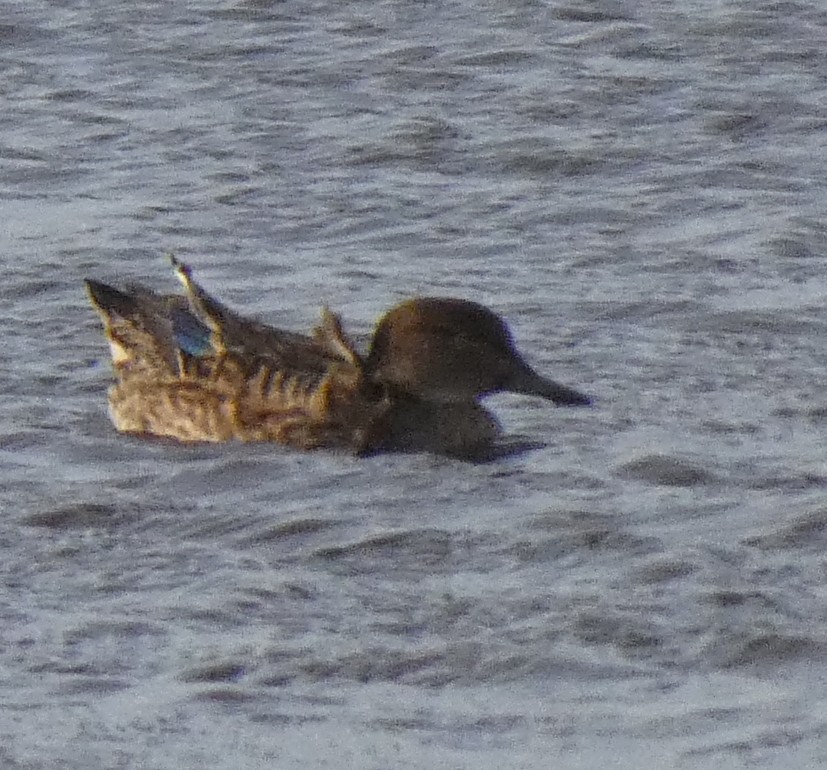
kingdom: Animalia
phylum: Chordata
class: Aves
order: Anseriformes
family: Anatidae
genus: Anas
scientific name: Anas crecca
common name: Eurasian teal
